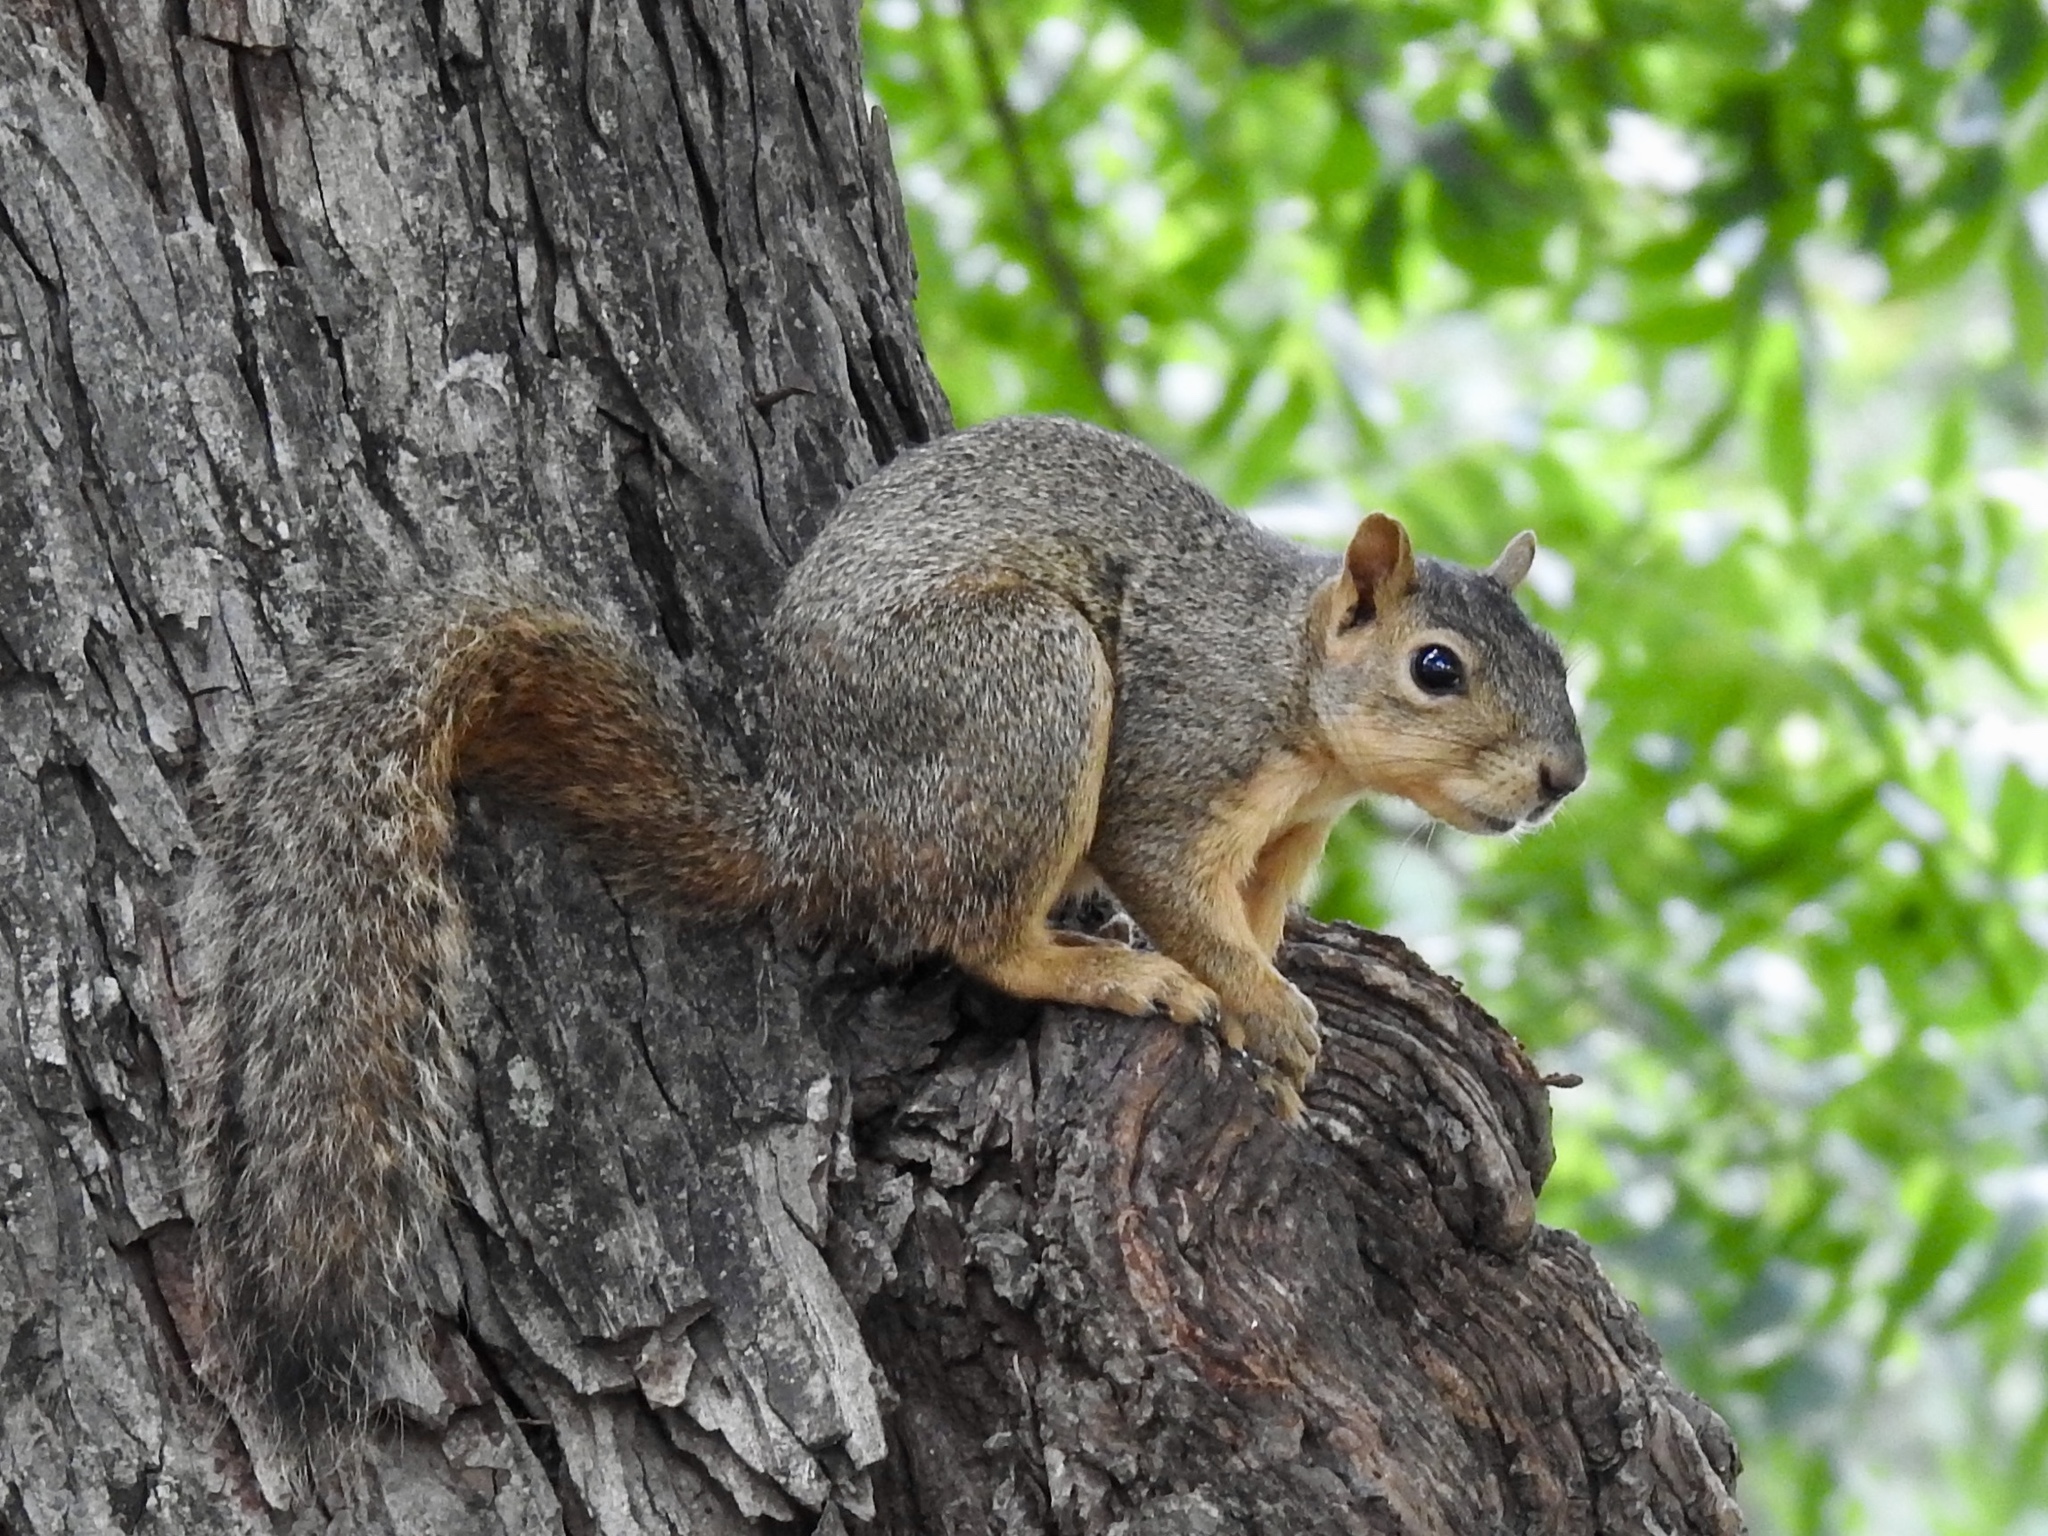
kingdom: Animalia
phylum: Chordata
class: Mammalia
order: Rodentia
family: Sciuridae
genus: Sciurus
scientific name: Sciurus niger
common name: Fox squirrel
